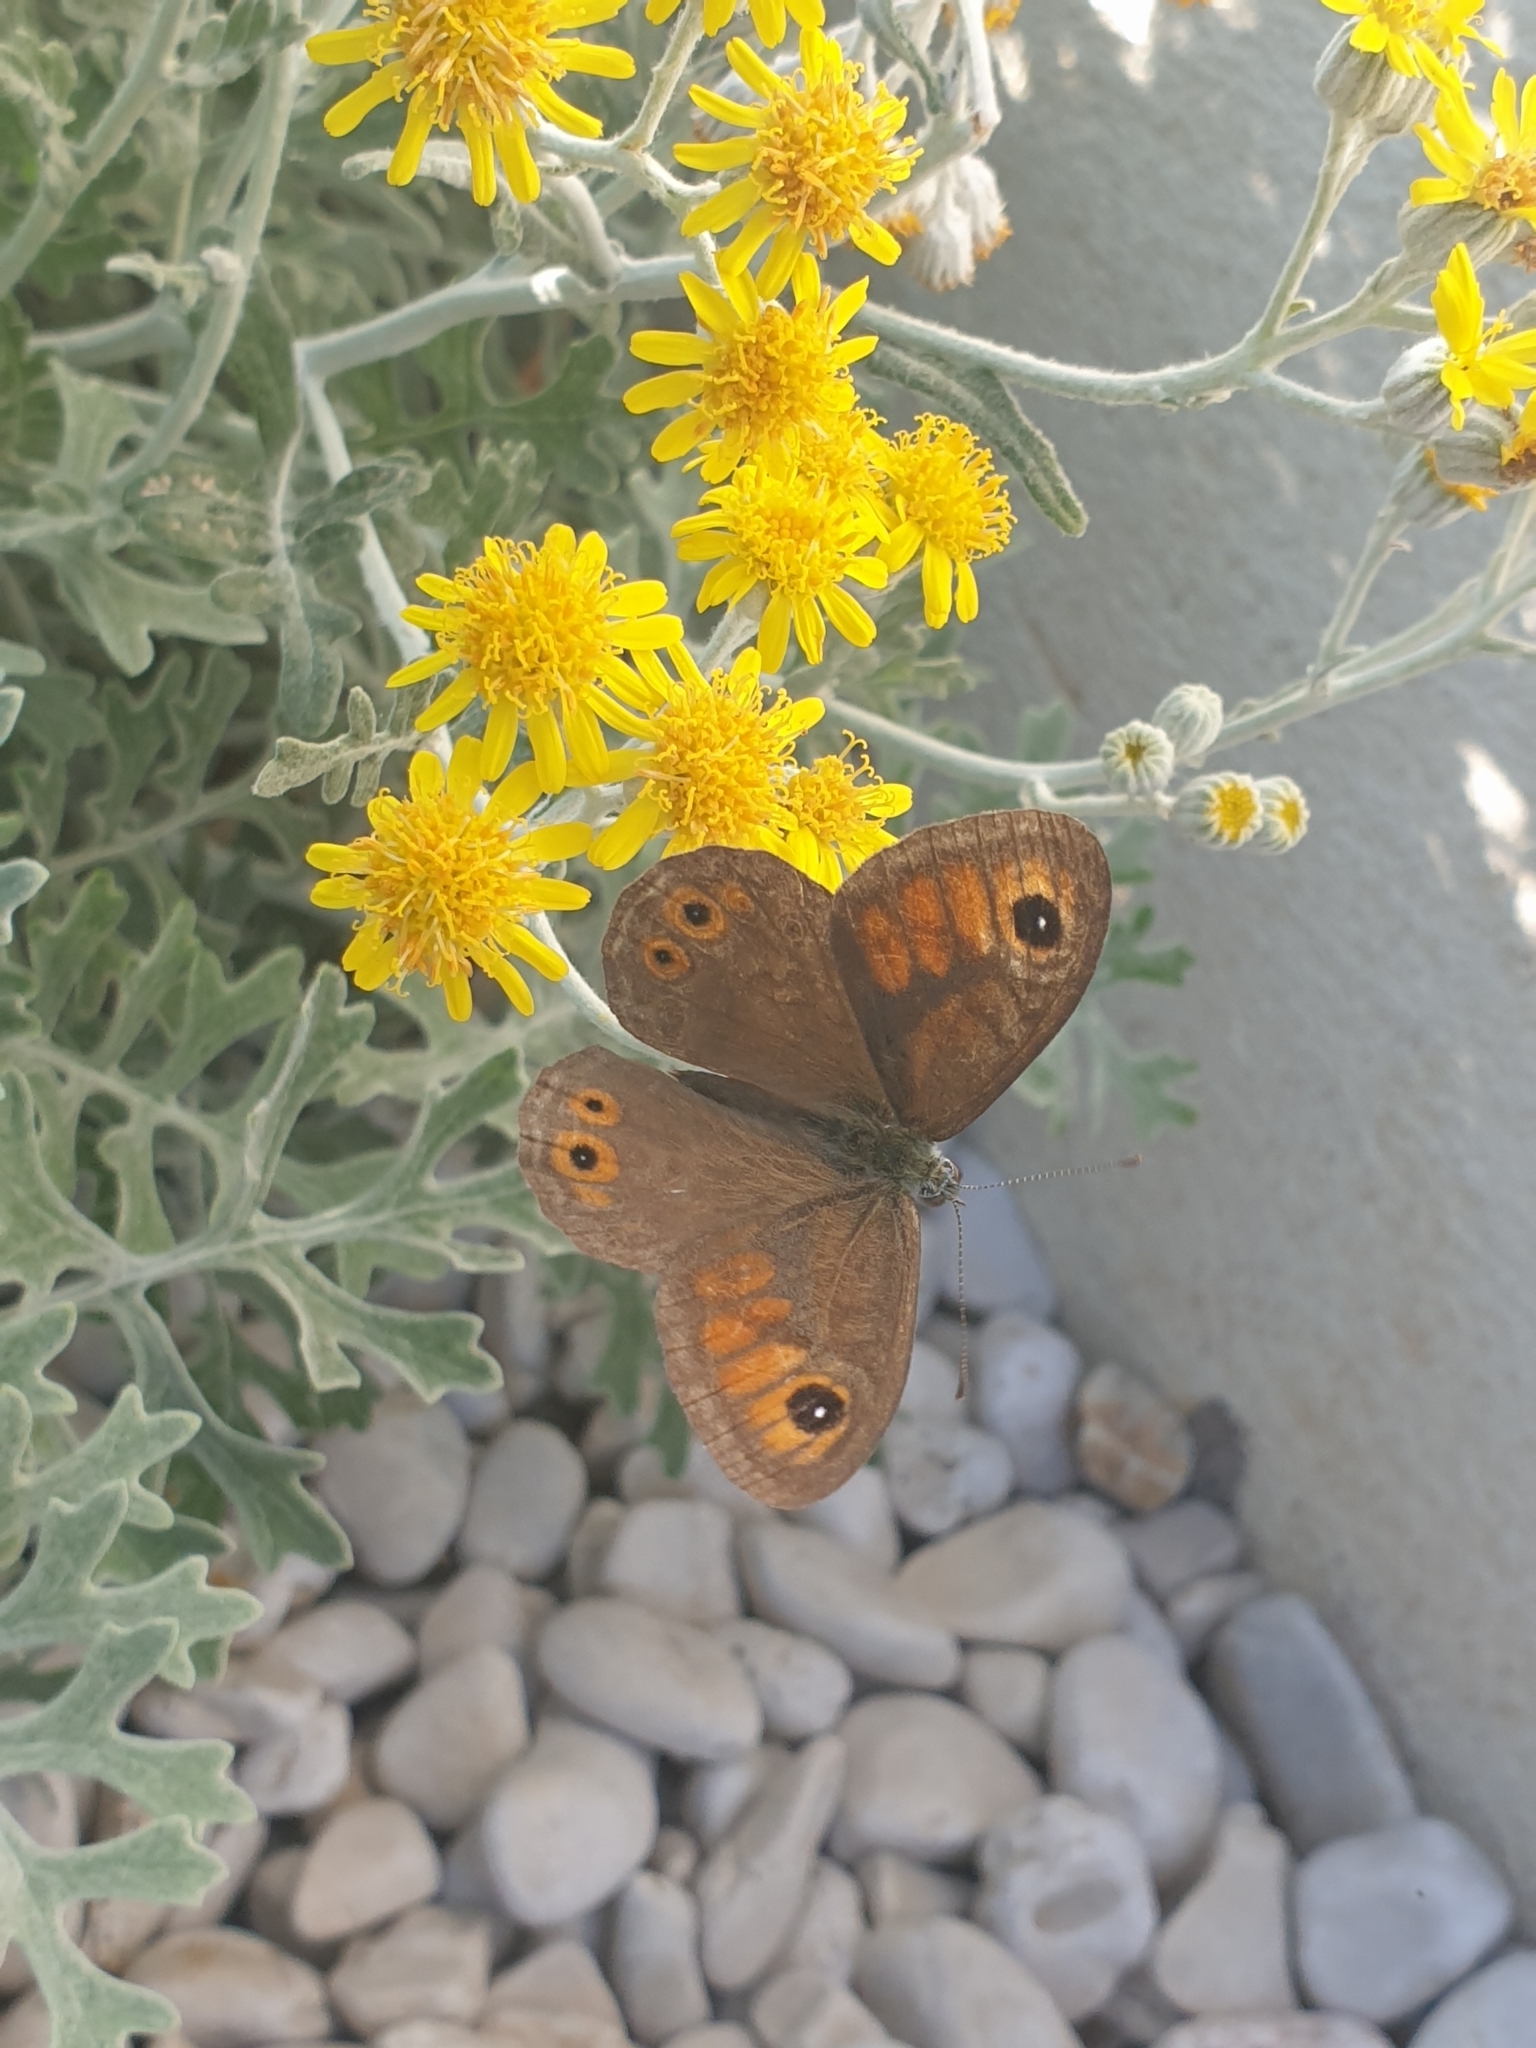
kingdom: Animalia
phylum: Arthropoda
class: Insecta
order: Lepidoptera
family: Nymphalidae
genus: Pararge
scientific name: Pararge Lasiommata maera
